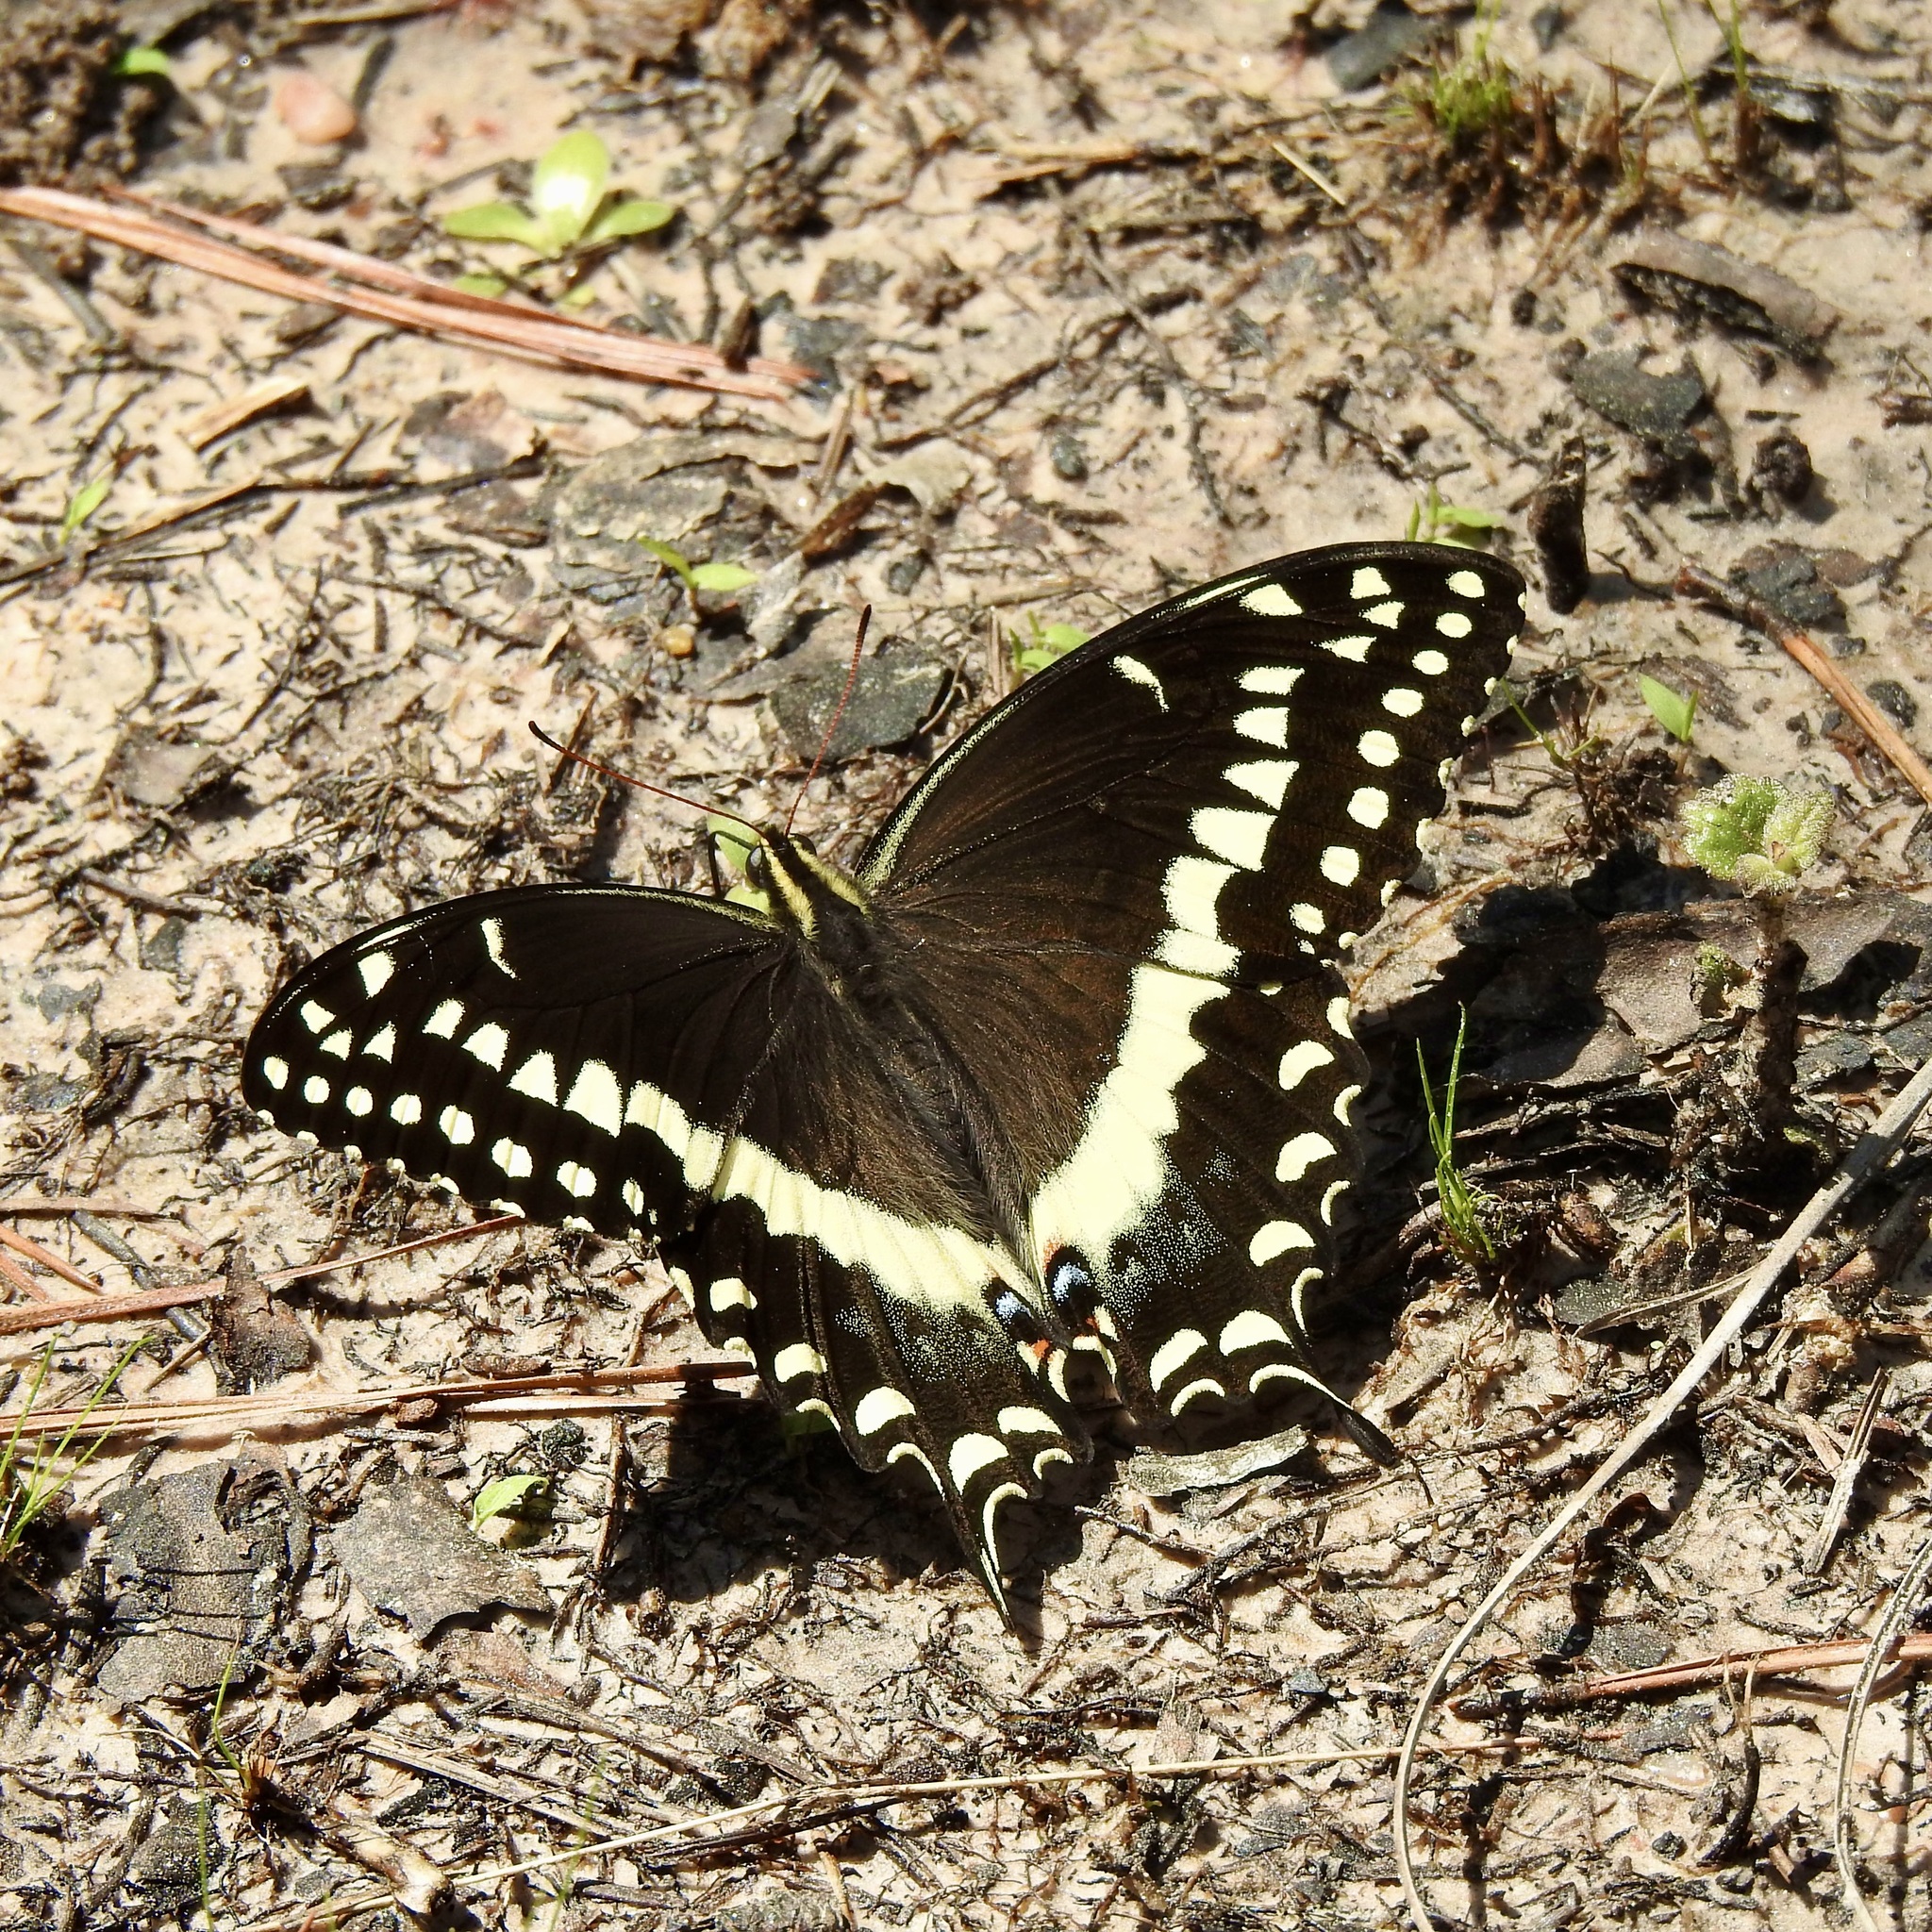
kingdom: Animalia
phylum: Arthropoda
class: Insecta
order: Lepidoptera
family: Papilionidae
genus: Papilio
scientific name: Papilio palamedes
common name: Palamedes swallowtail
